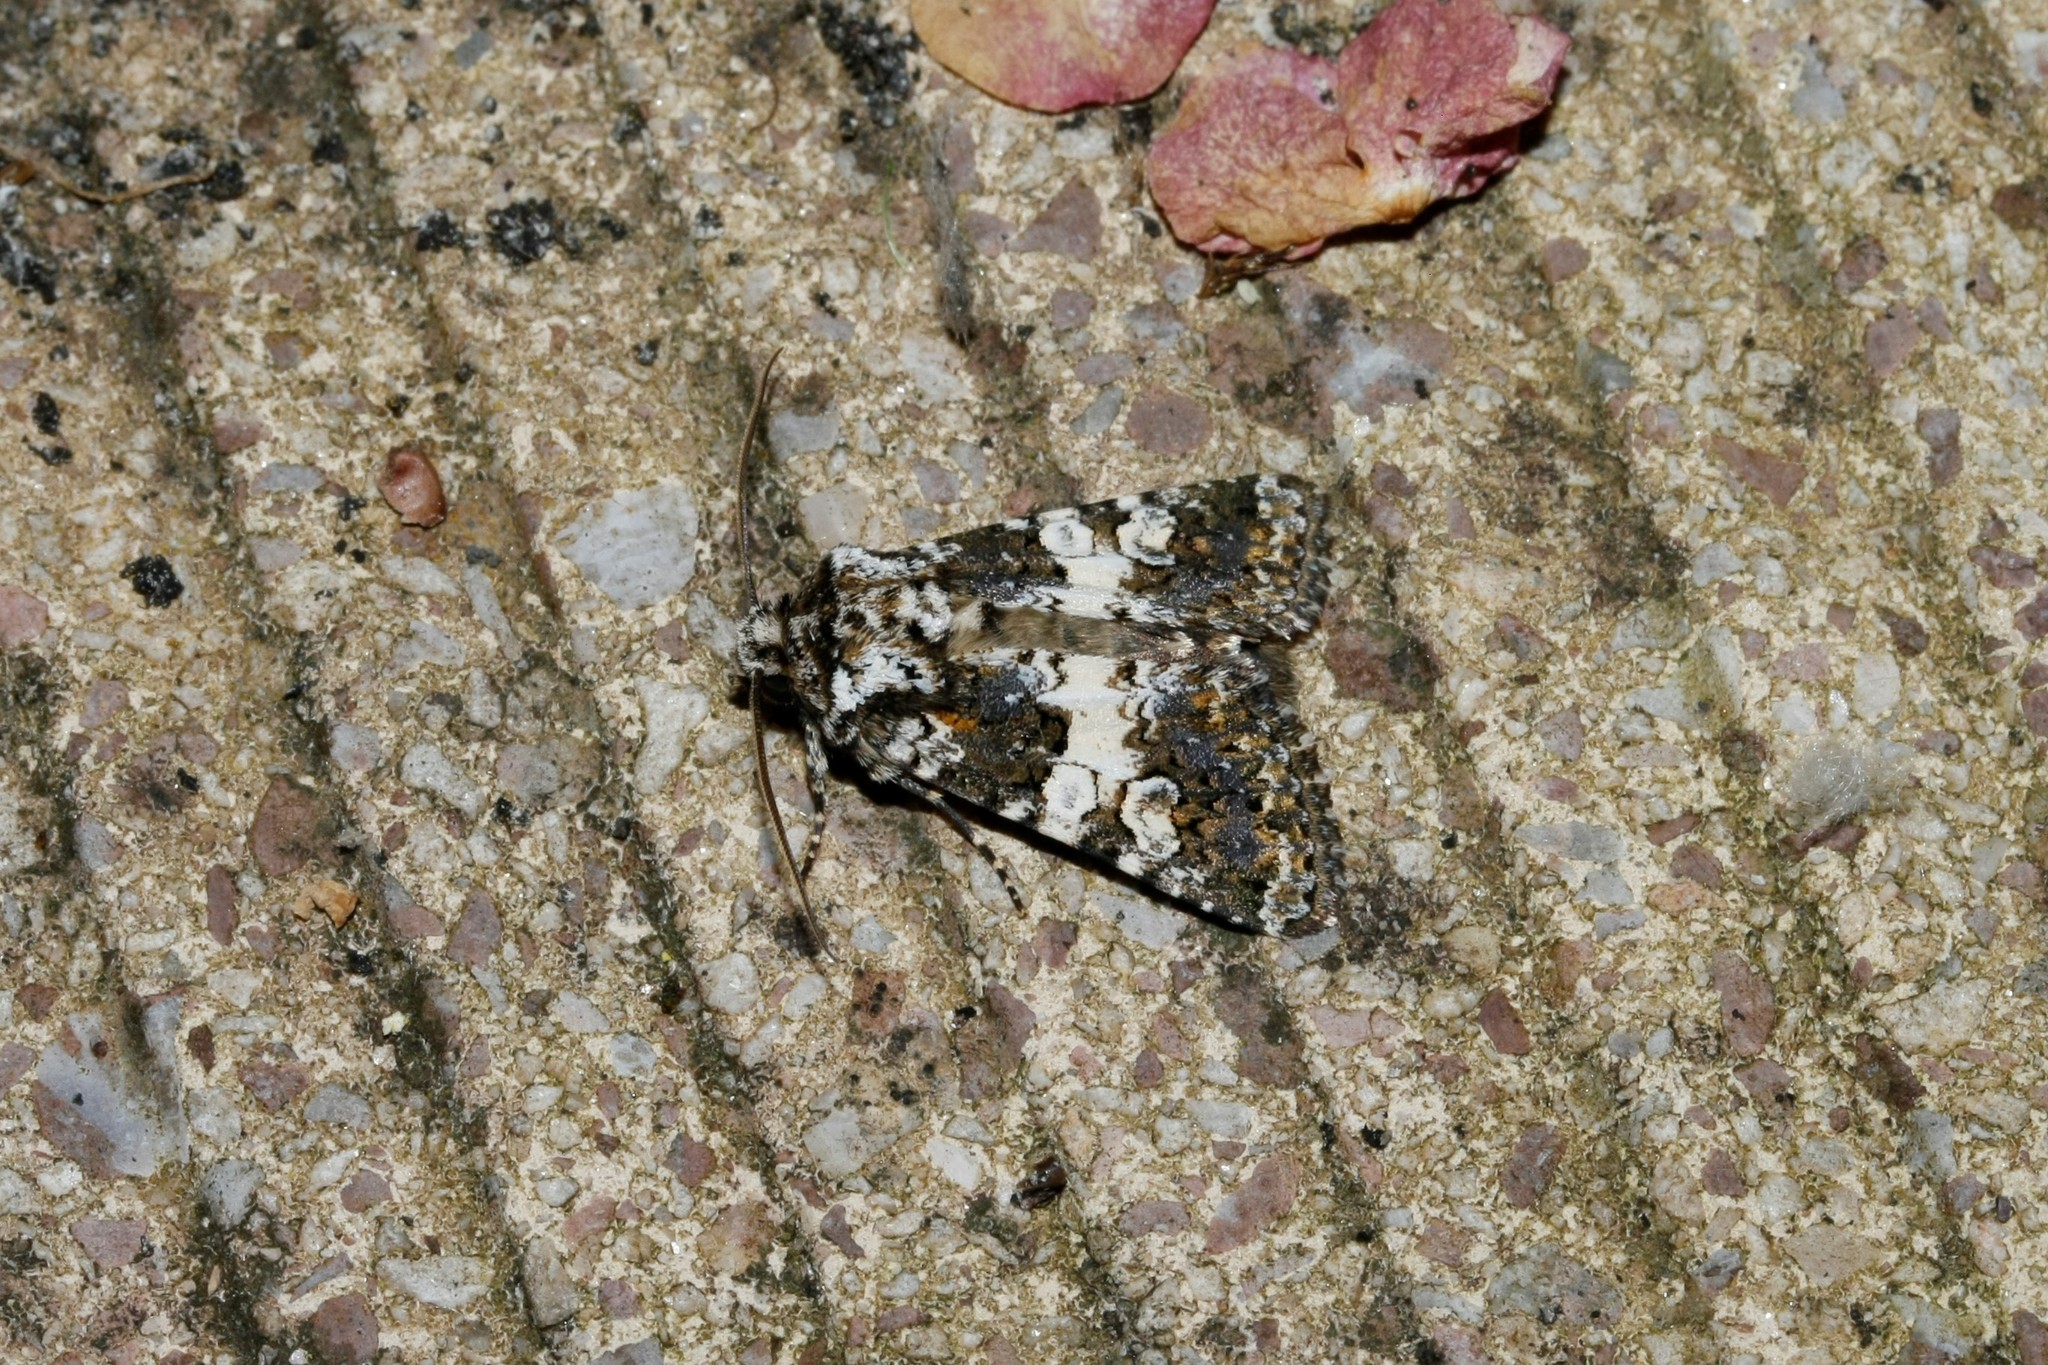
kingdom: Animalia
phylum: Arthropoda
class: Insecta
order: Lepidoptera
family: Noctuidae
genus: Hadena
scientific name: Hadena compta
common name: Varied coronet
